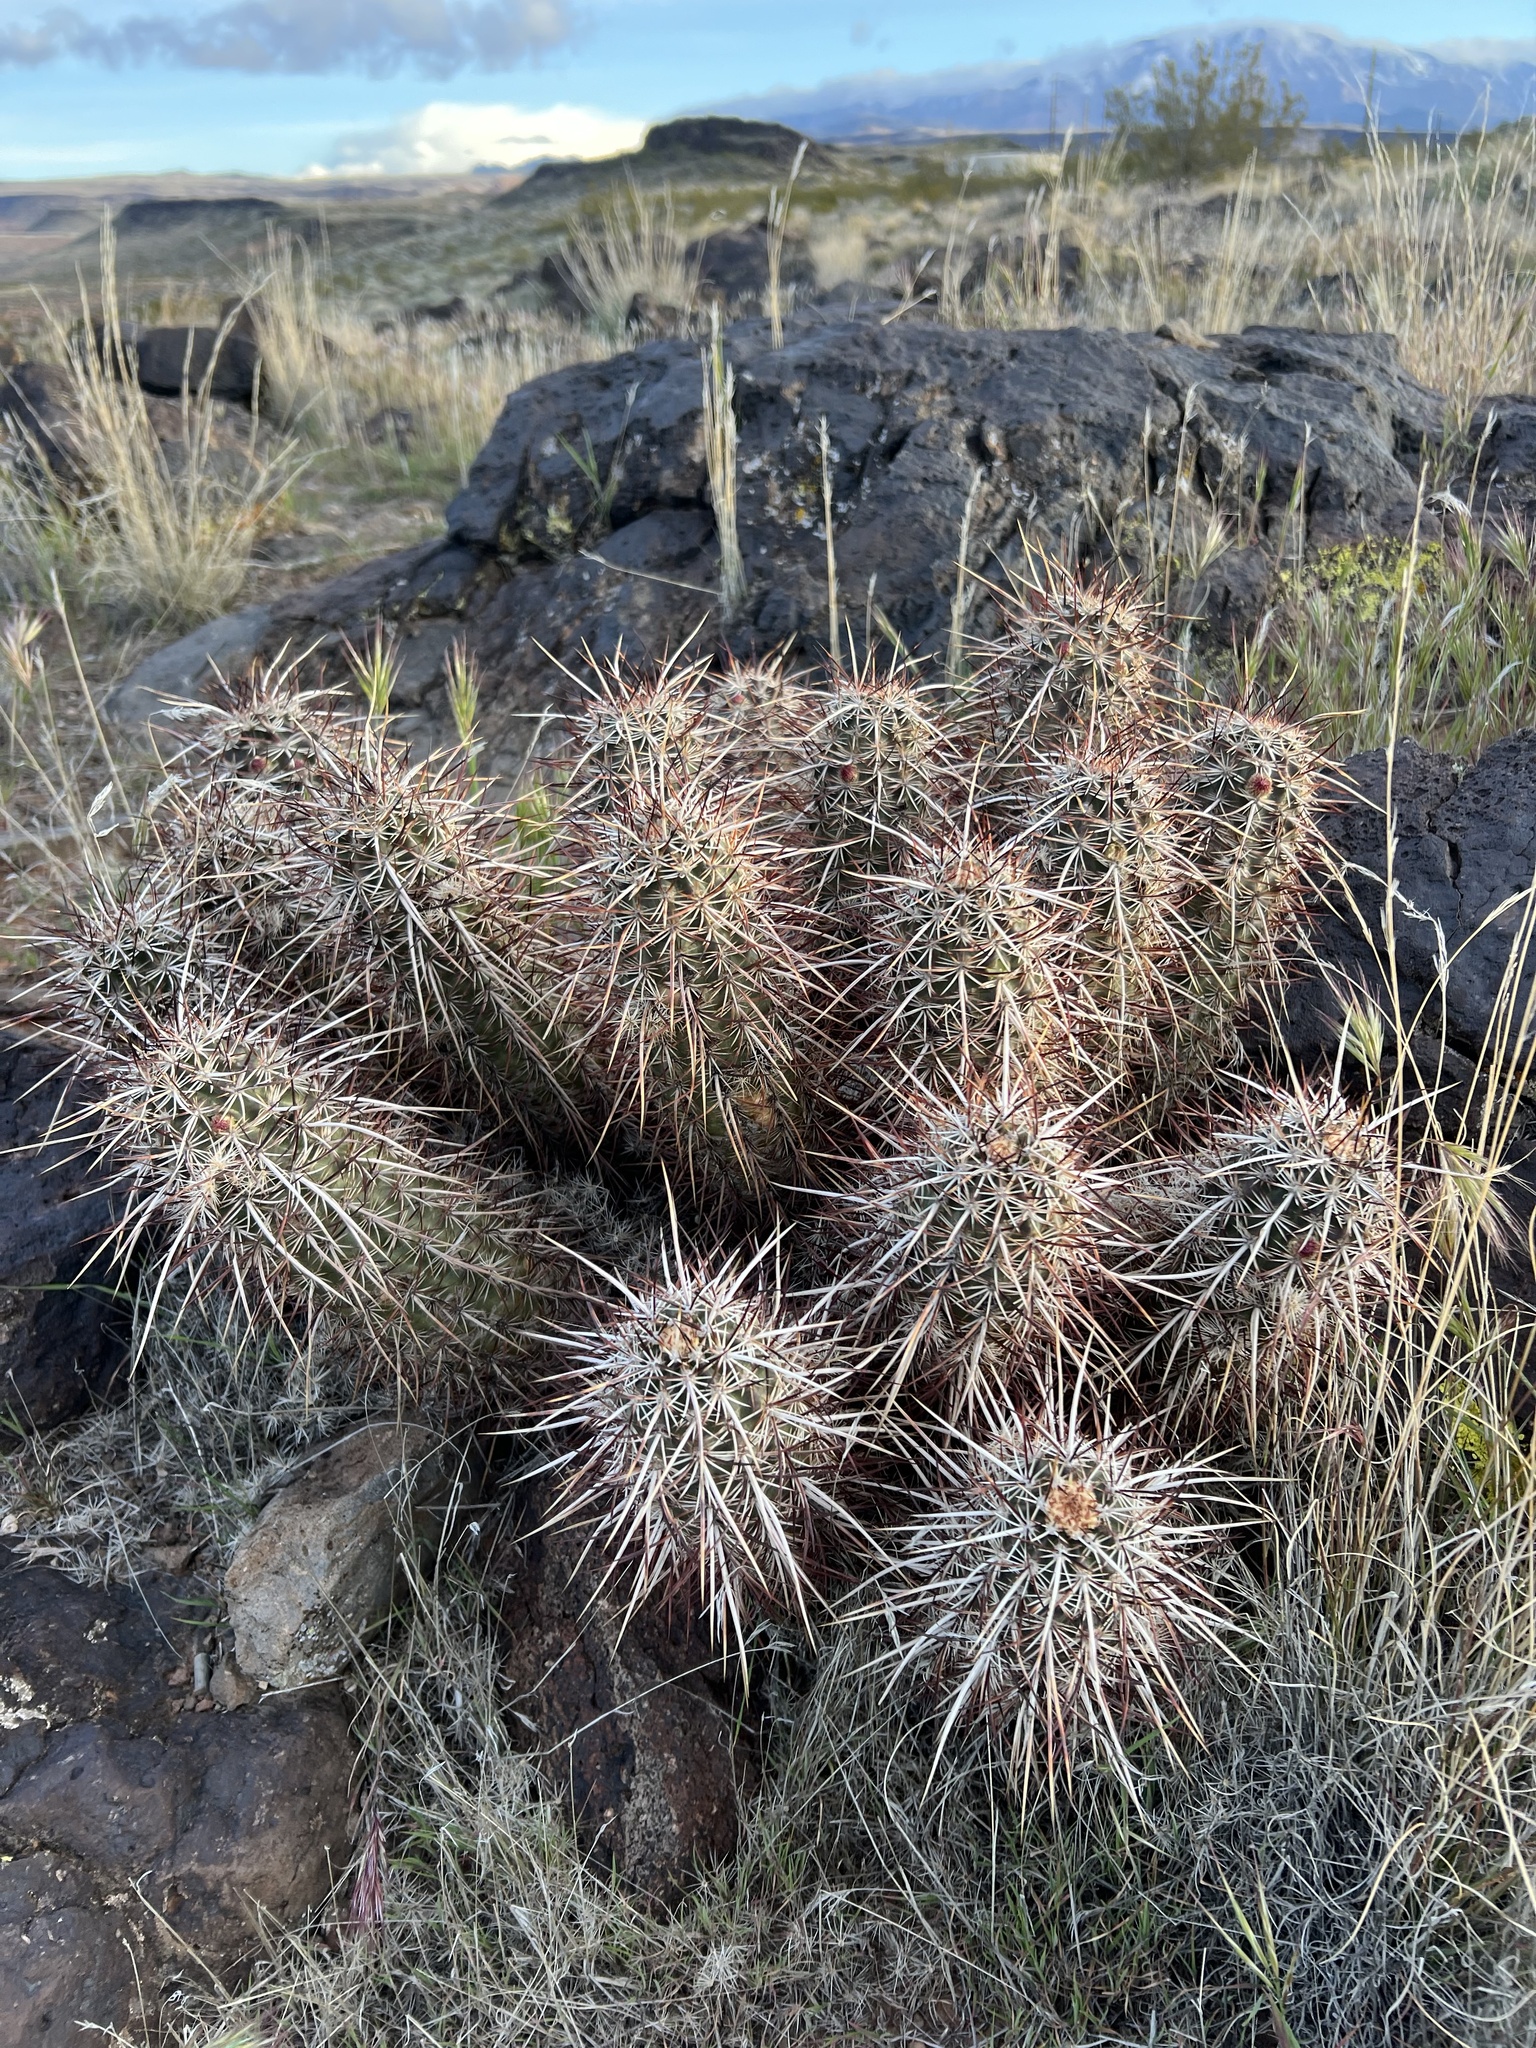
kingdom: Plantae
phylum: Tracheophyta
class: Magnoliopsida
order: Caryophyllales
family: Cactaceae
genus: Echinocereus
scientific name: Echinocereus relictus
